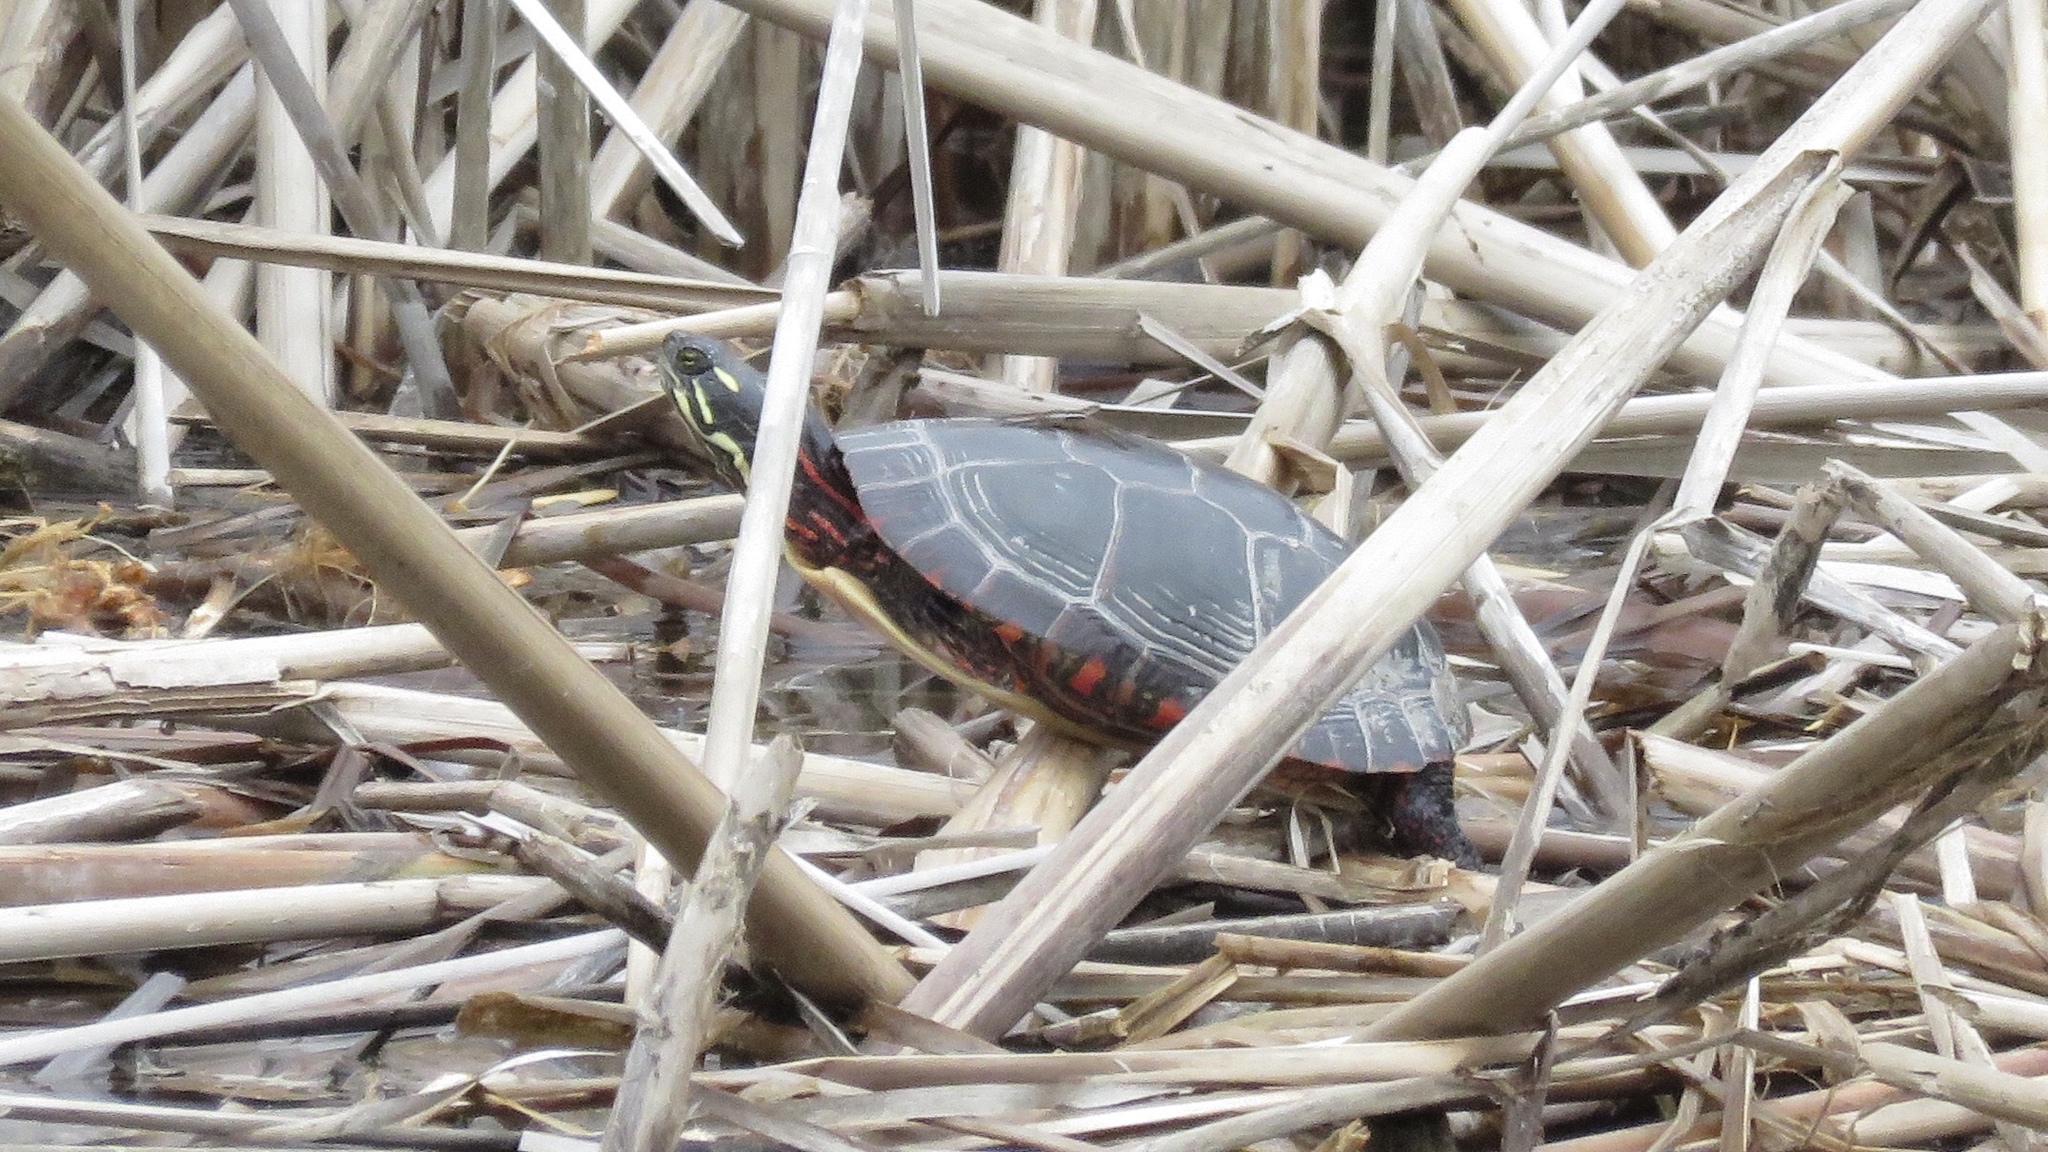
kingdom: Animalia
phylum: Chordata
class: Testudines
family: Emydidae
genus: Chrysemys
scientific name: Chrysemys picta
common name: Painted turtle
